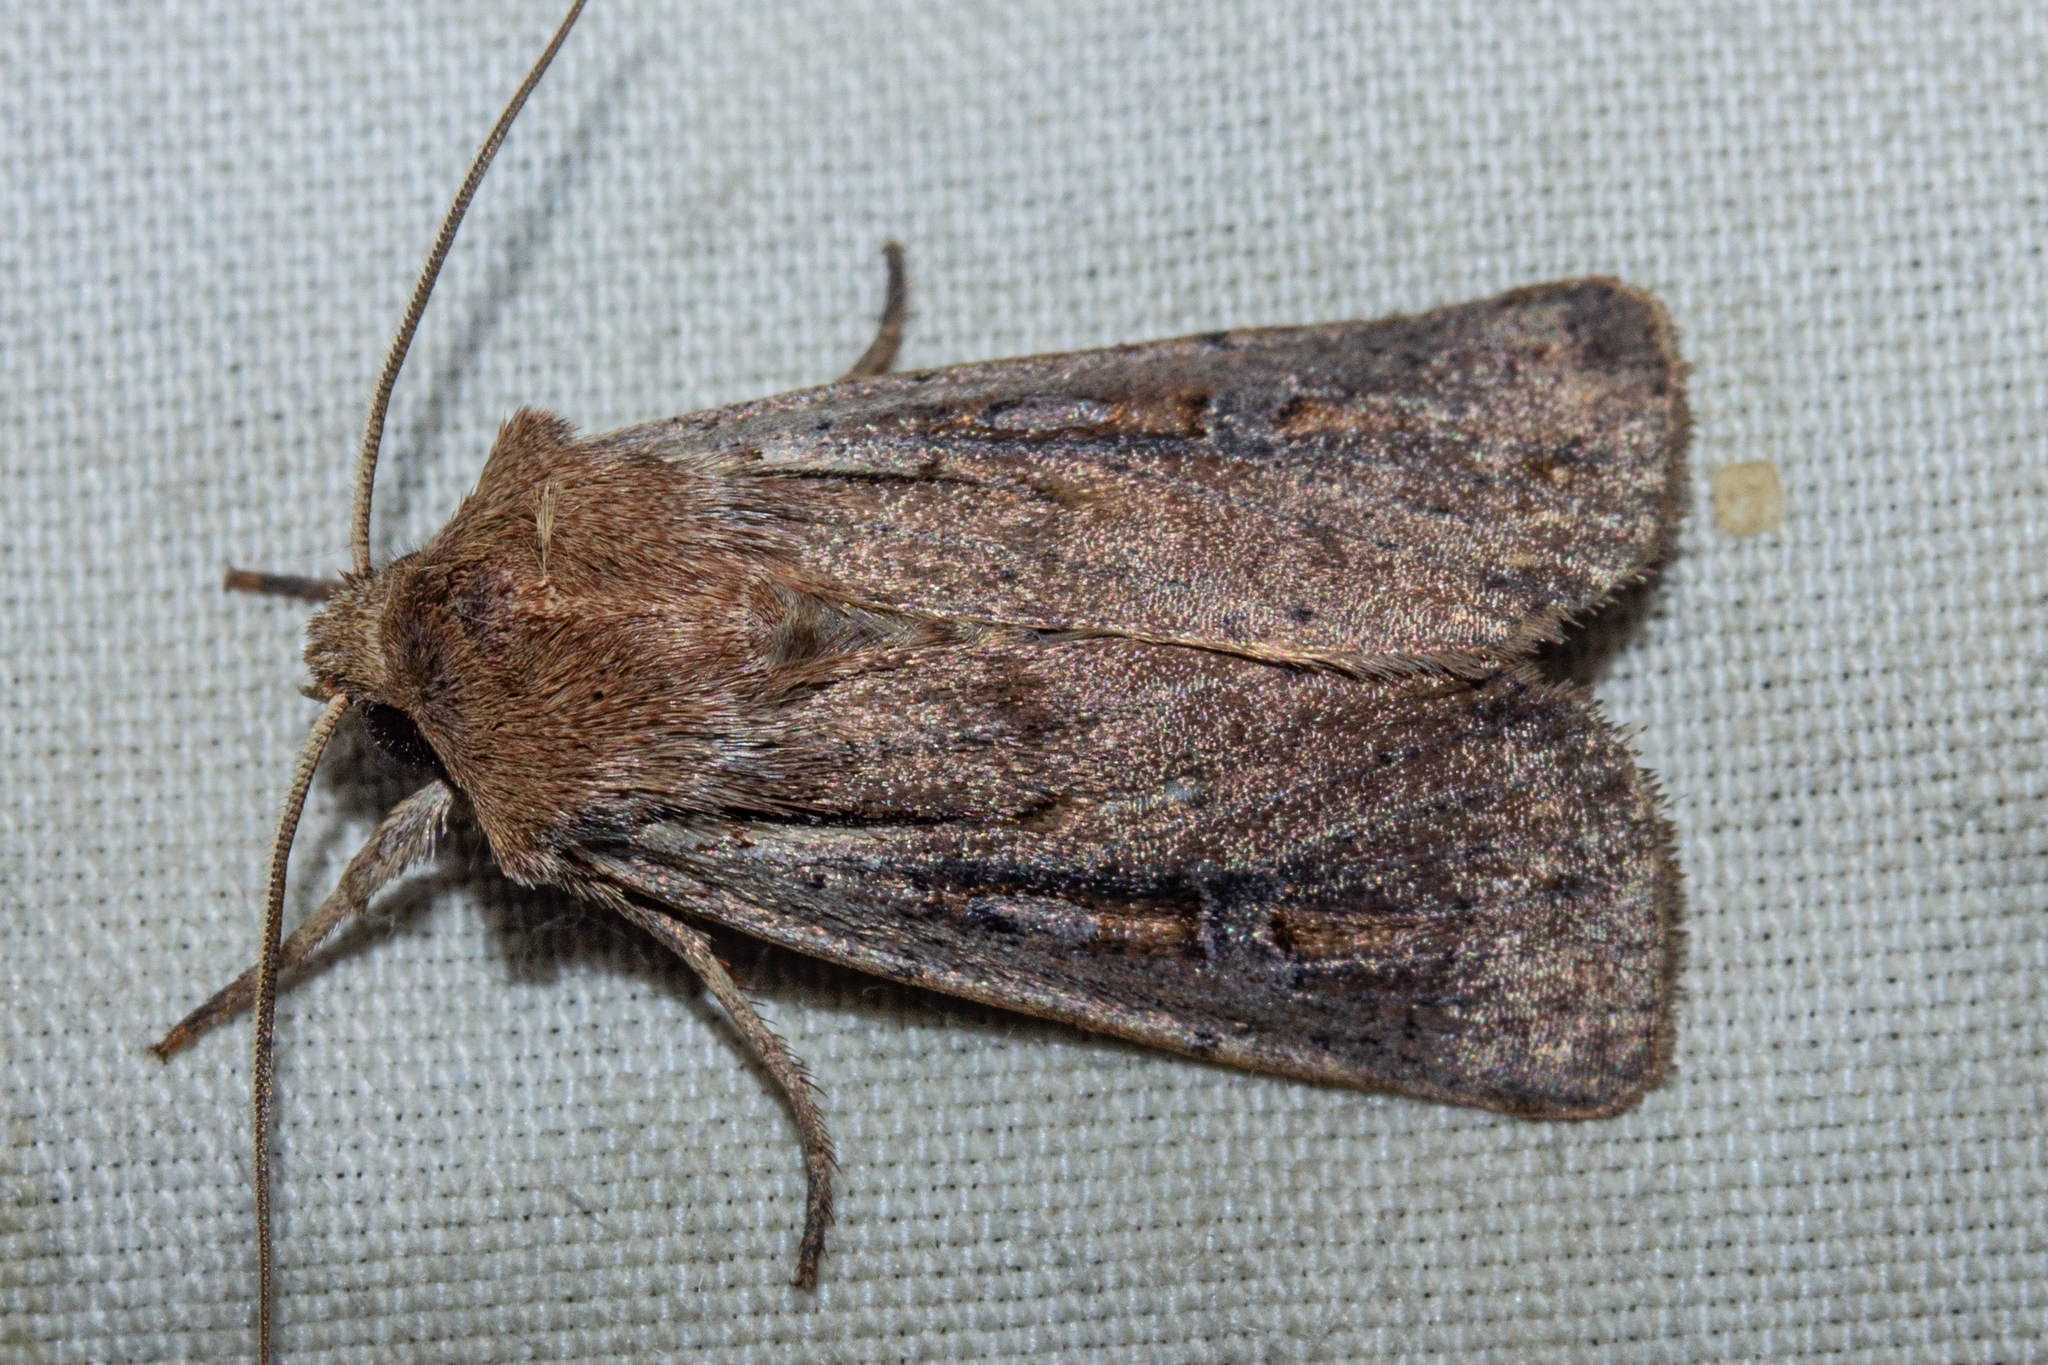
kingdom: Animalia
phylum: Arthropoda
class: Insecta
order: Lepidoptera
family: Noctuidae
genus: Ichneutica
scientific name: Ichneutica atristriga
